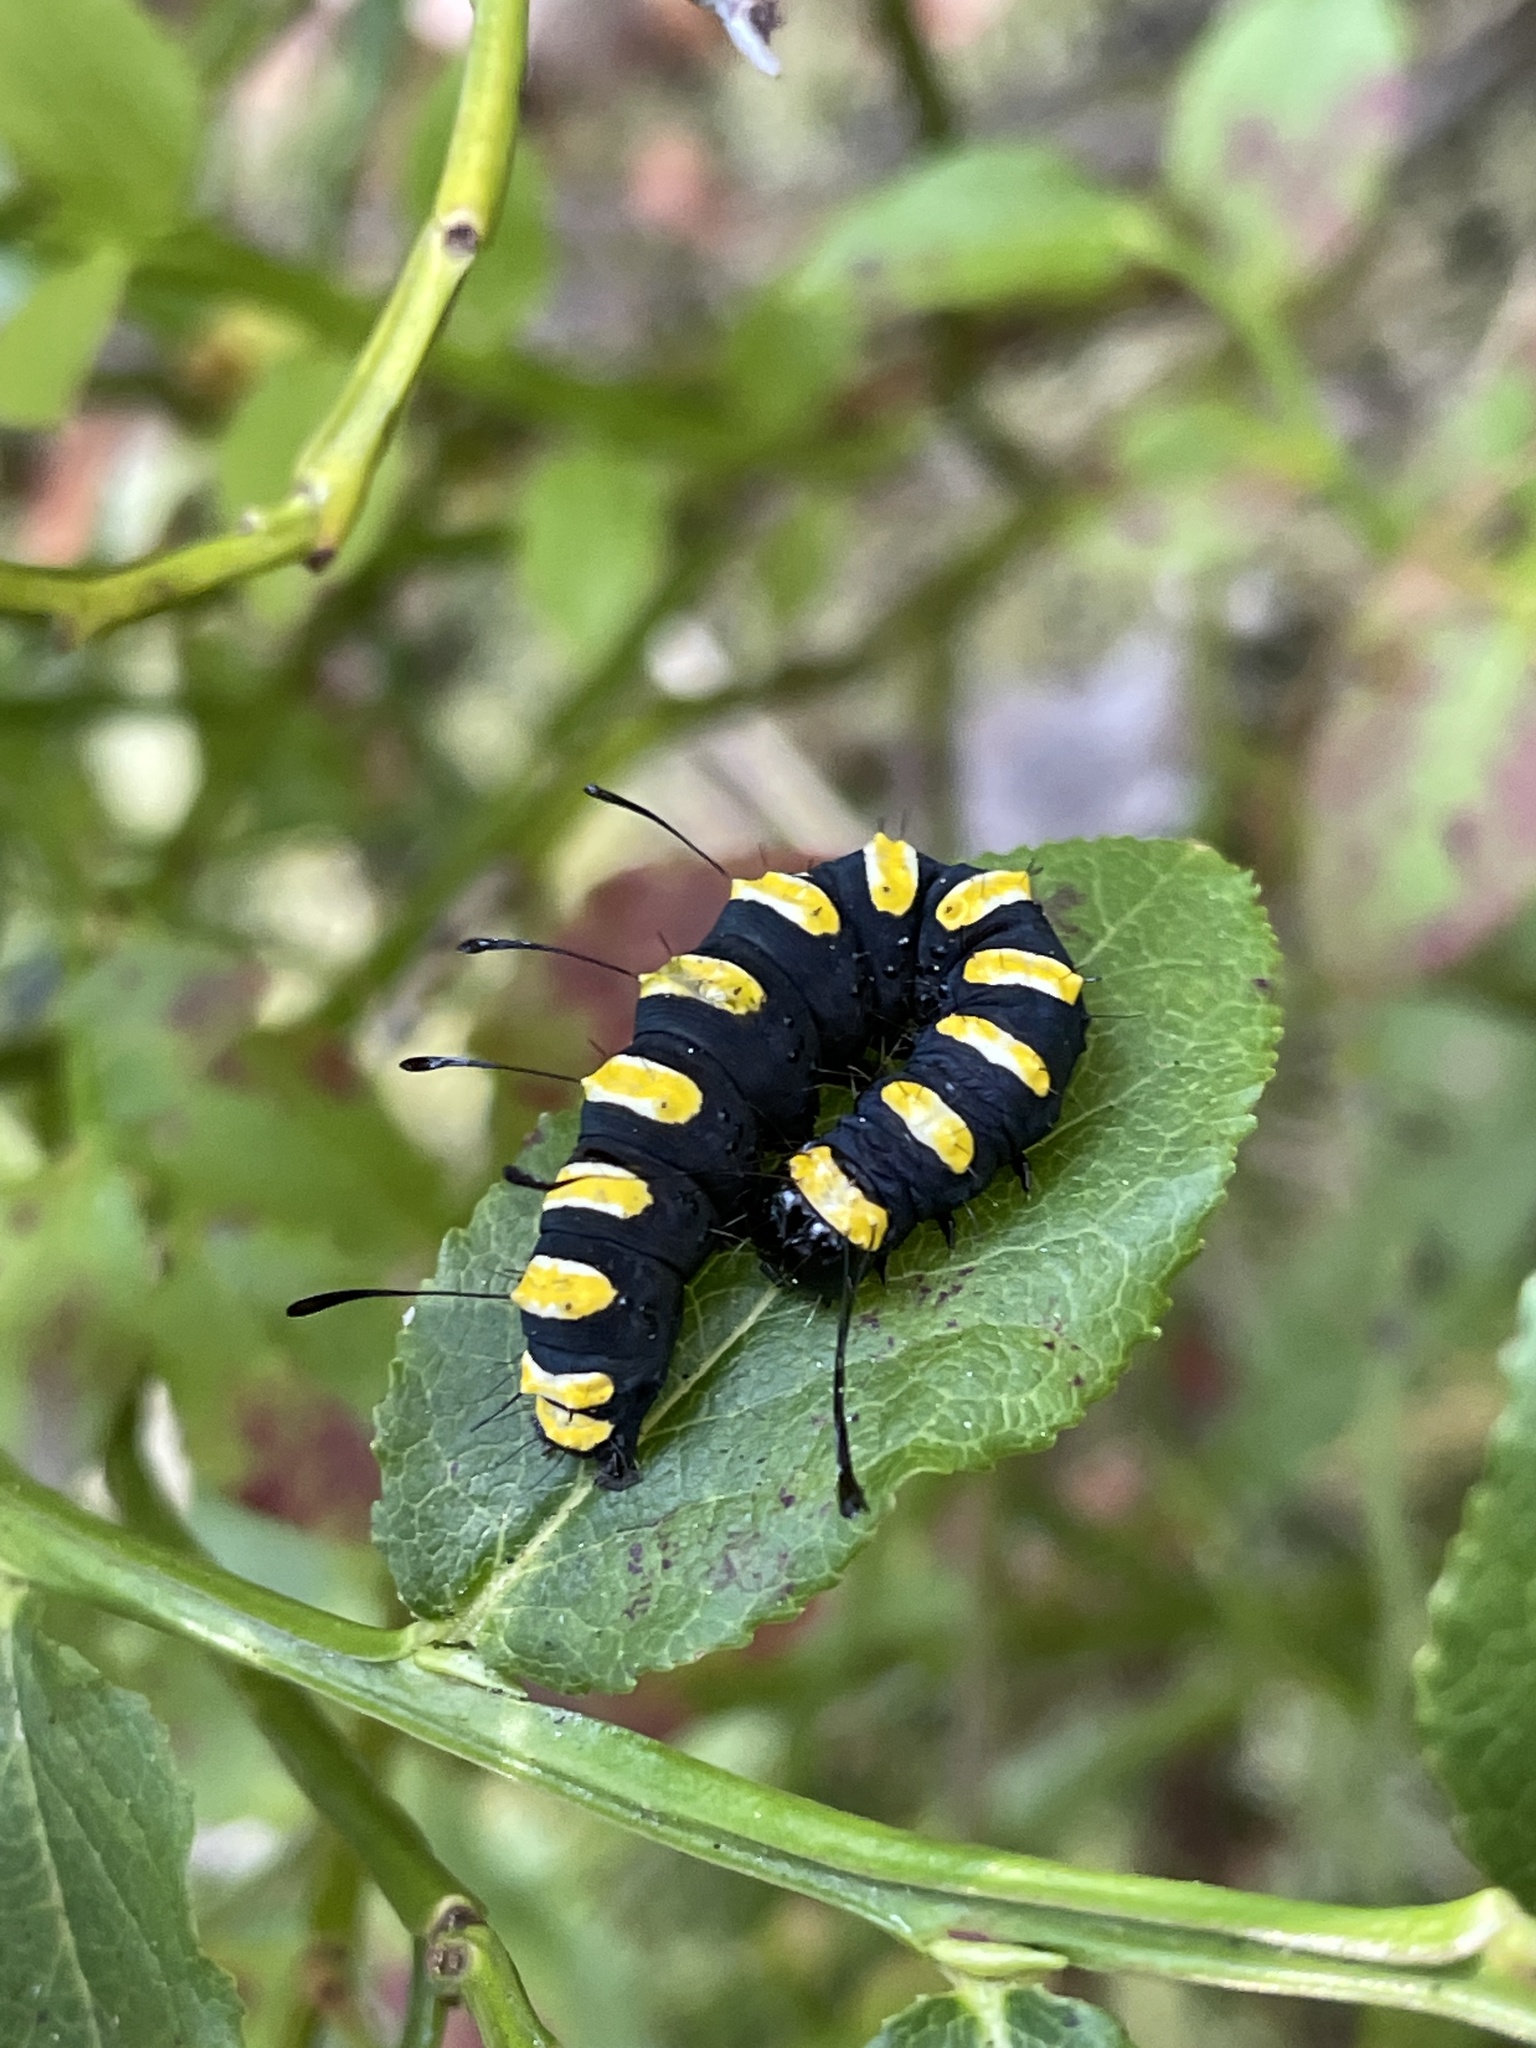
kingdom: Animalia
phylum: Arthropoda
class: Insecta
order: Lepidoptera
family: Noctuidae
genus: Acronicta
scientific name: Acronicta alni
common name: Alder moth
